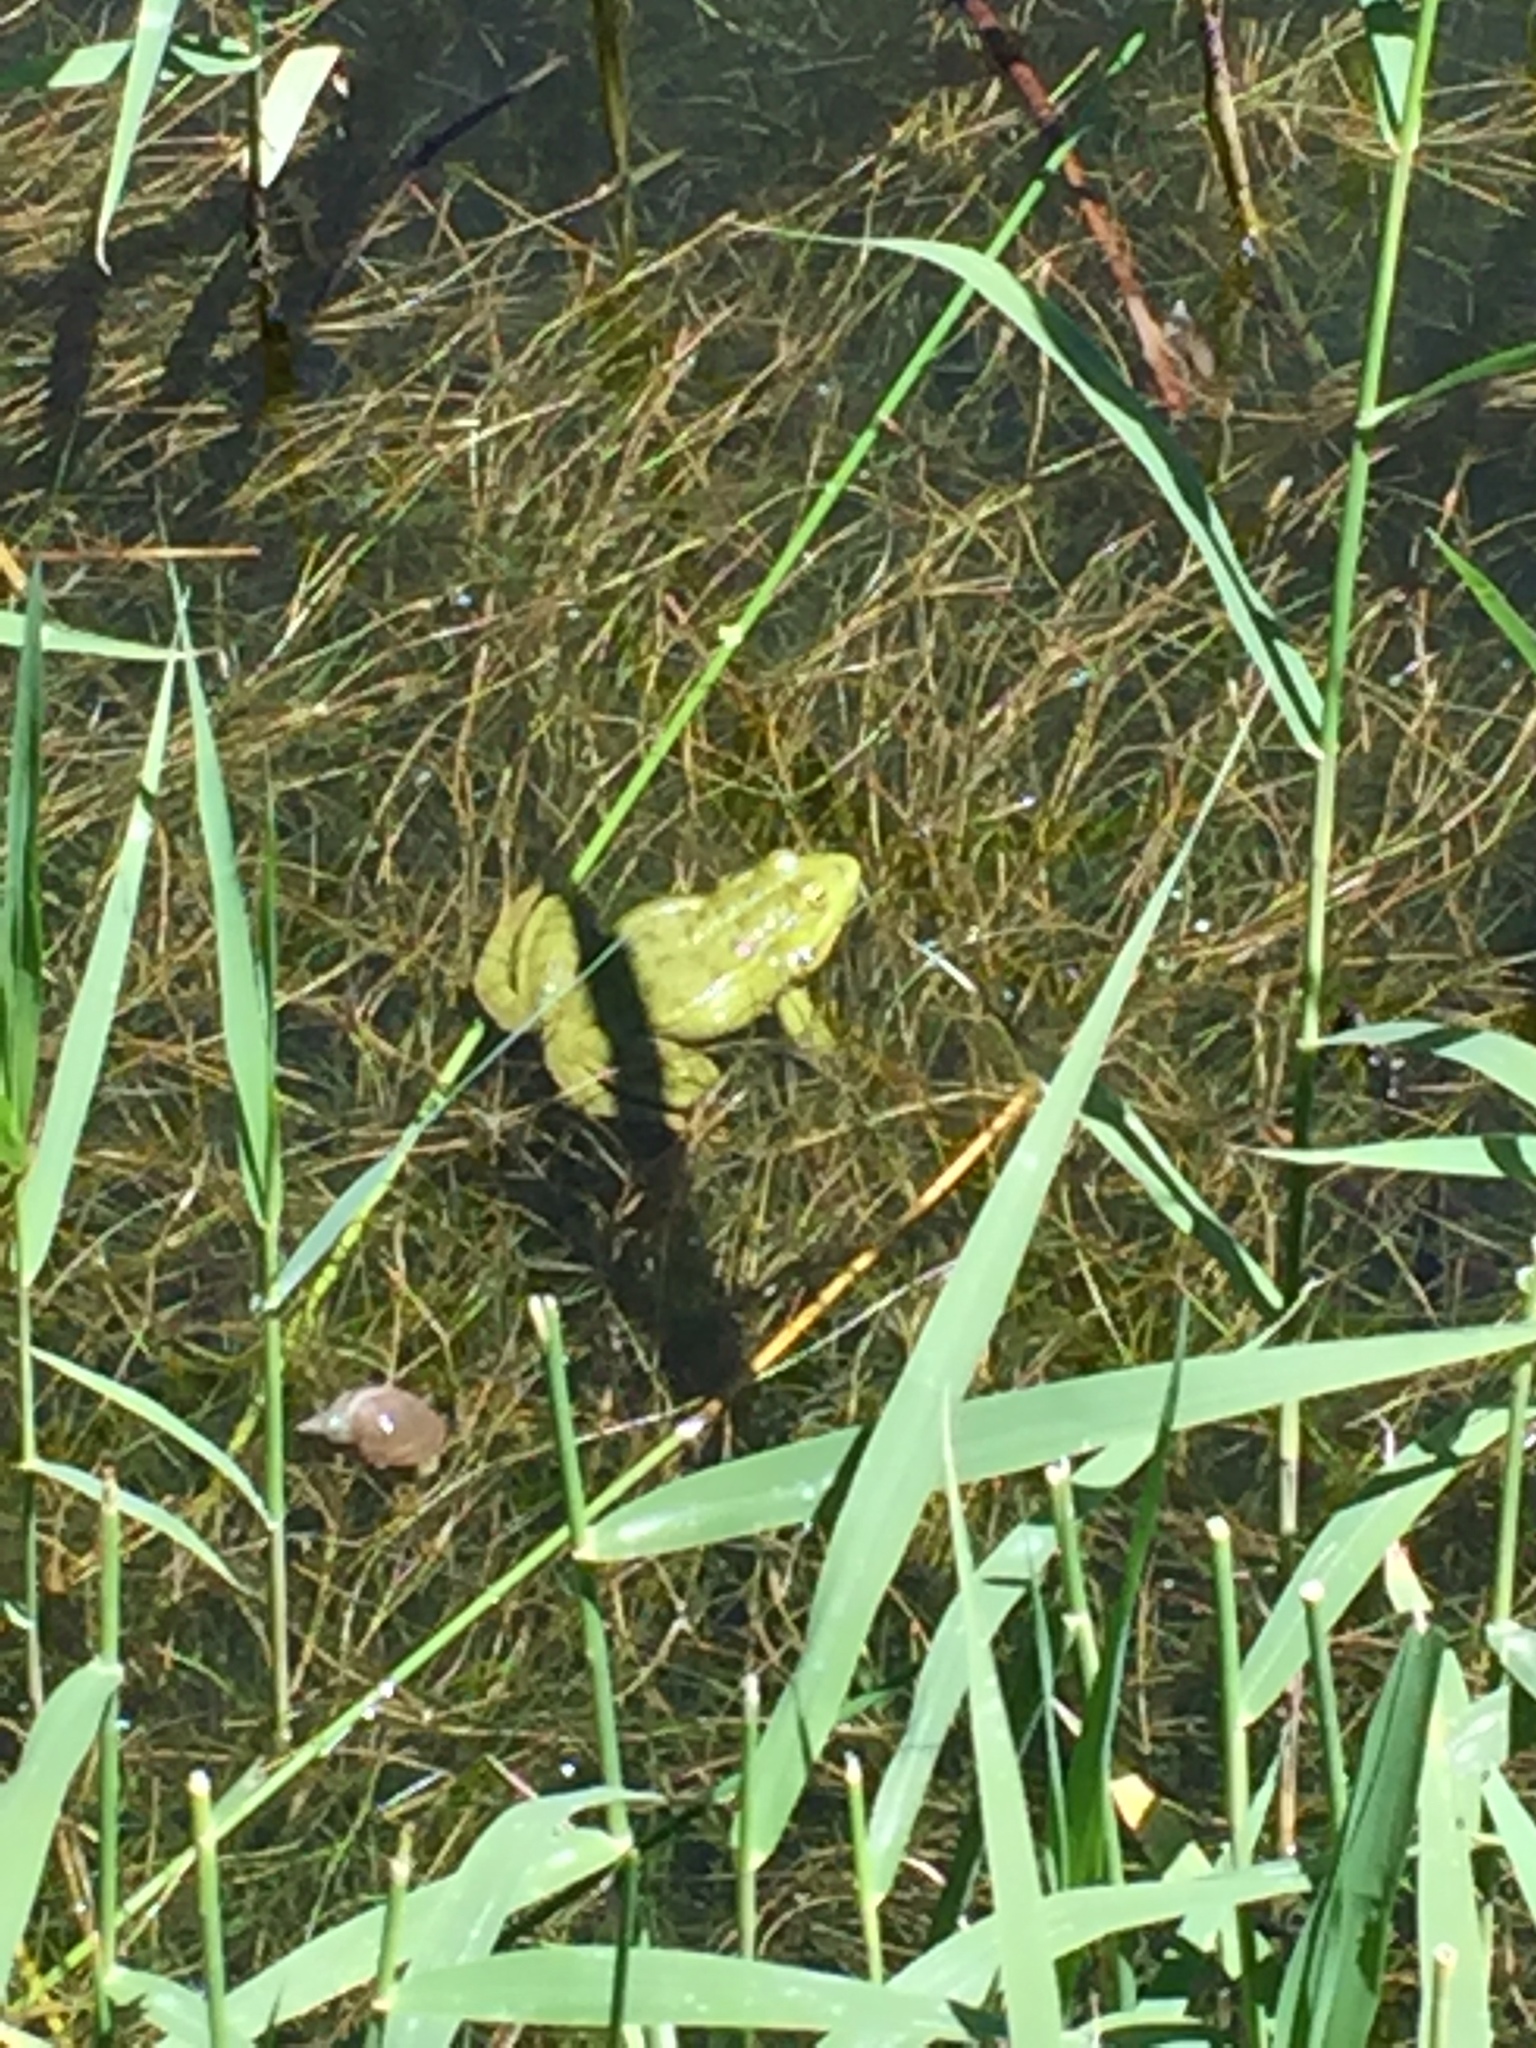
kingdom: Animalia
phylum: Chordata
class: Amphibia
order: Anura
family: Ranidae
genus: Pelophylax
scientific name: Pelophylax ridibundus
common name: Marsh frog
